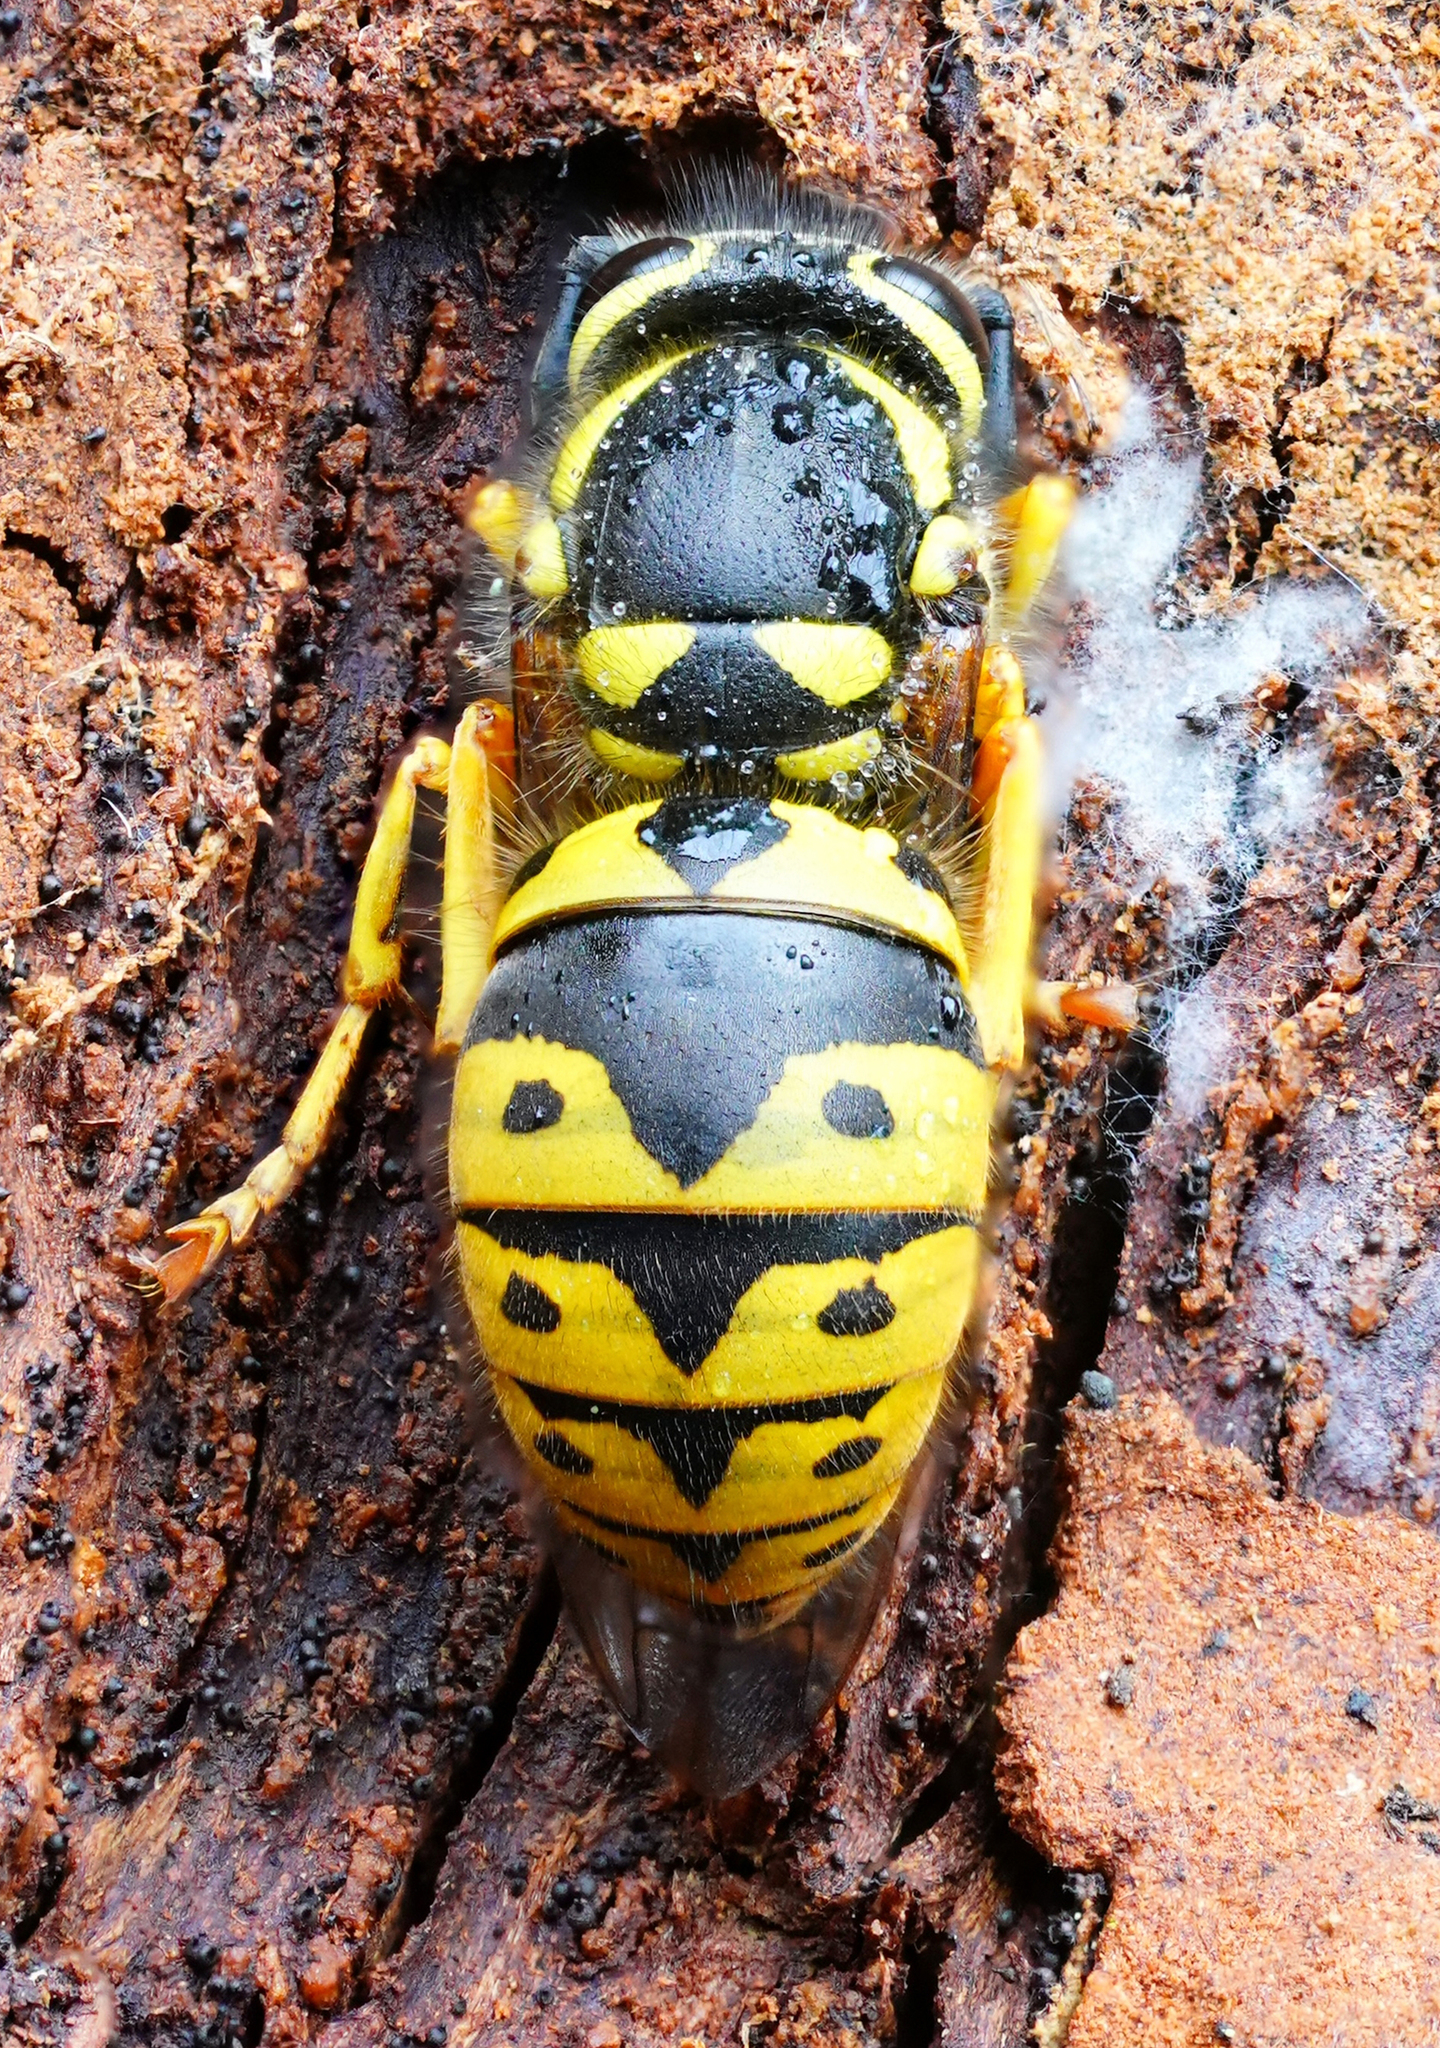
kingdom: Animalia
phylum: Arthropoda
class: Insecta
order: Hymenoptera
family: Vespidae
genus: Vespula
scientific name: Vespula pensylvanica
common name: Western yellowjacket
